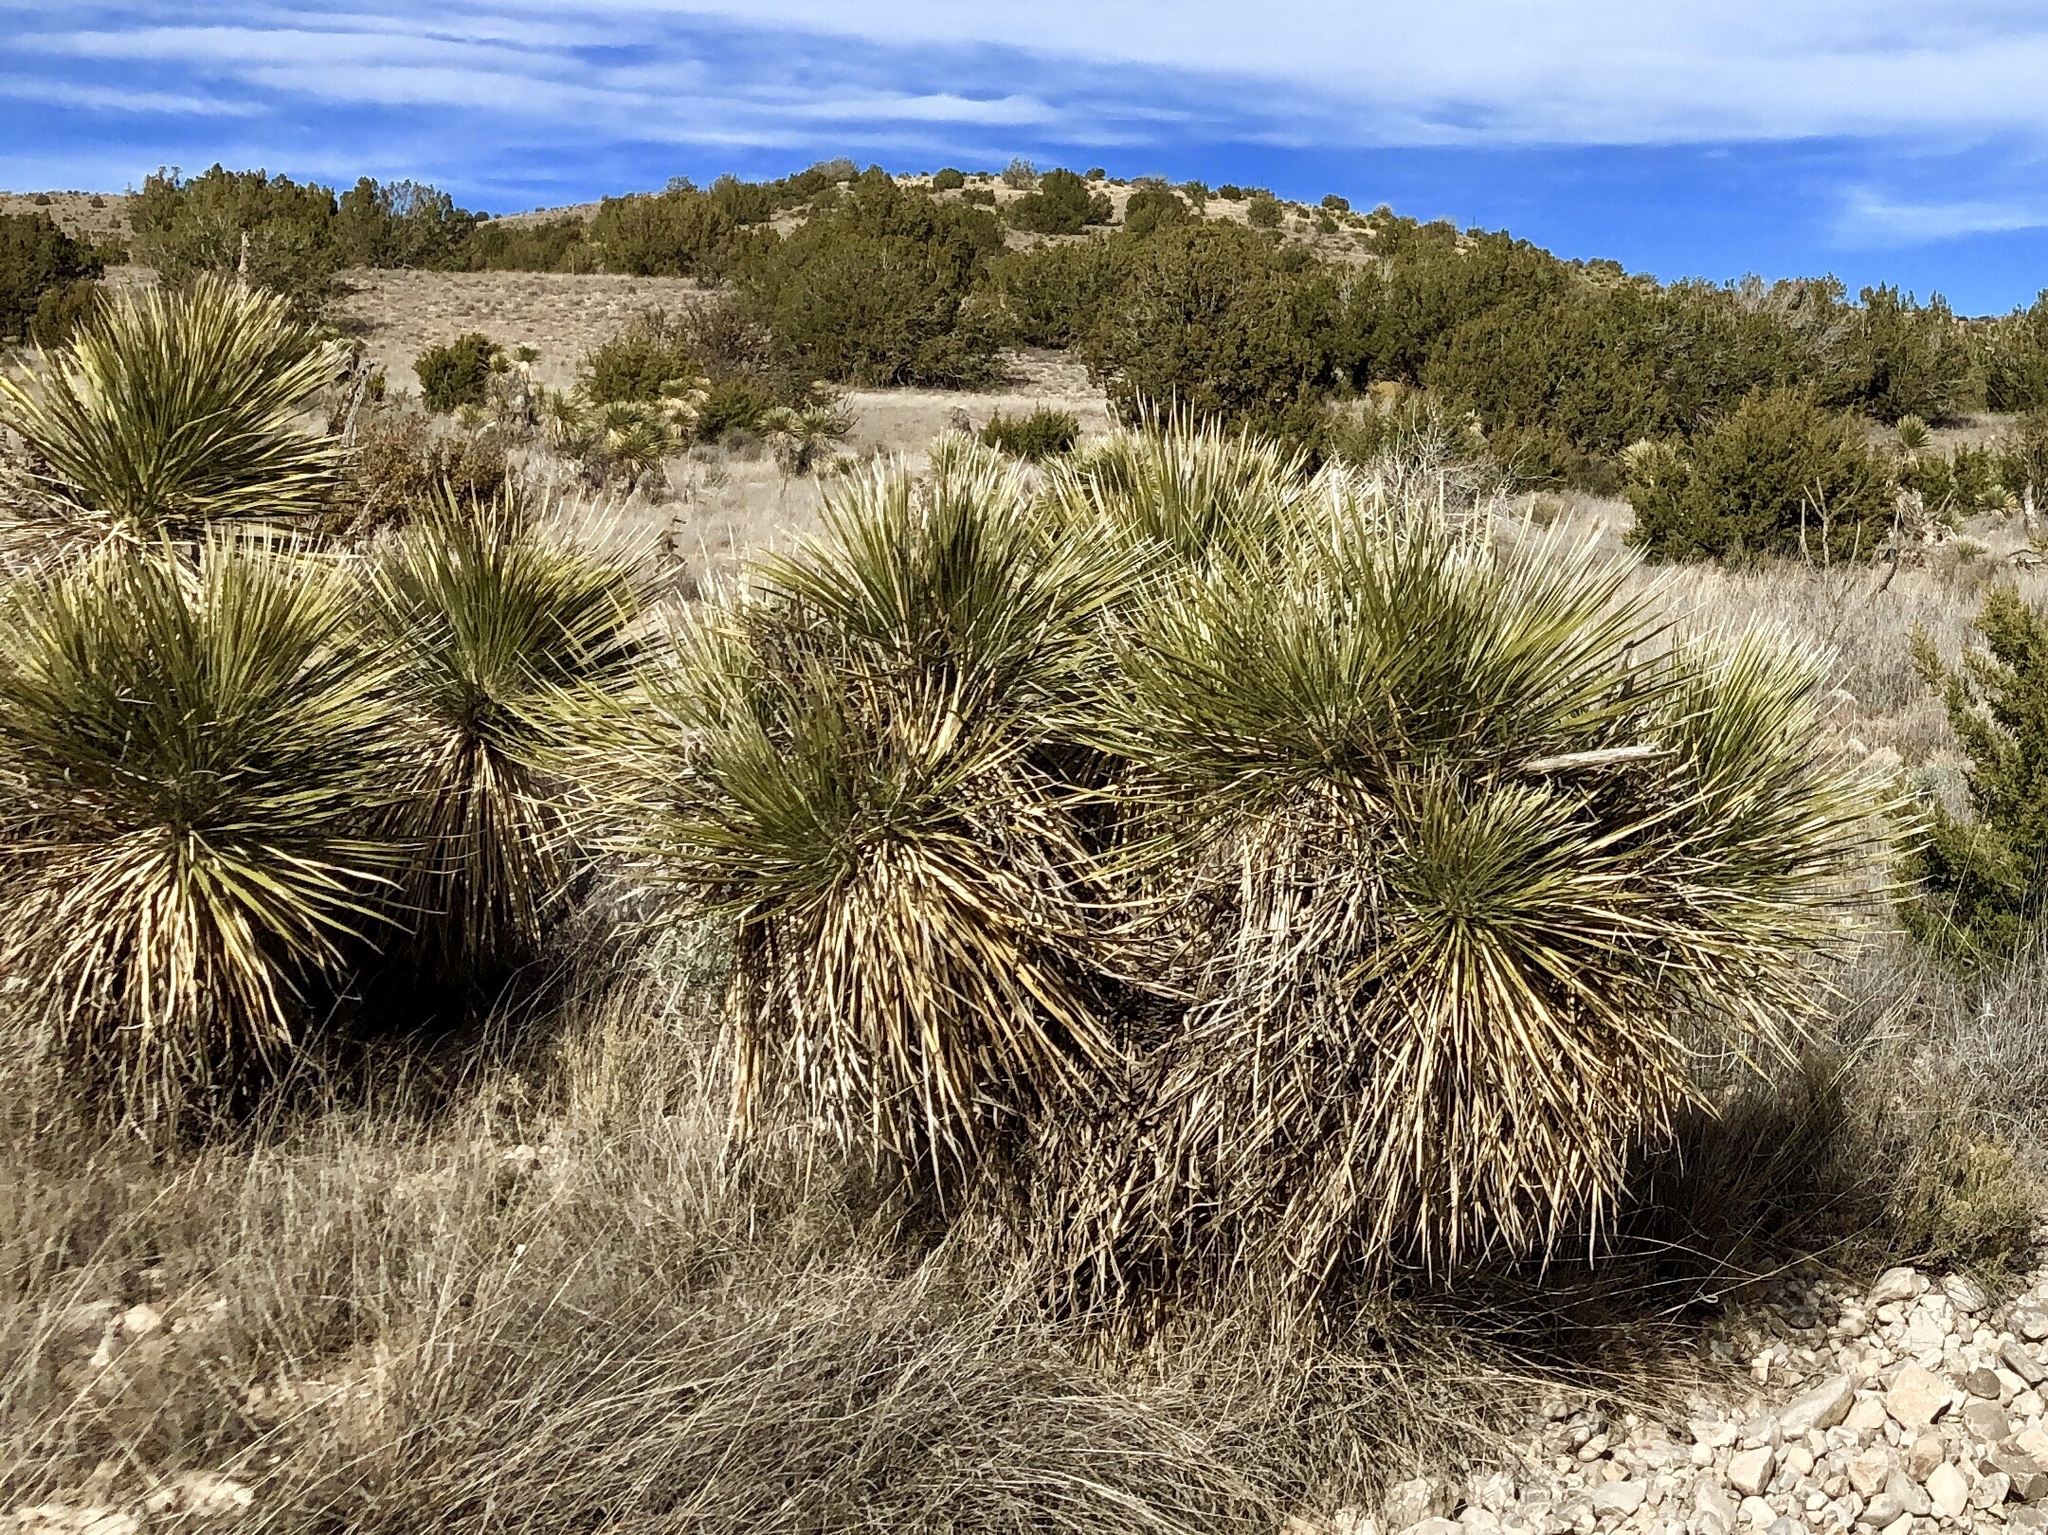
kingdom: Plantae
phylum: Tracheophyta
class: Liliopsida
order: Asparagales
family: Asparagaceae
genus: Yucca
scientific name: Yucca elata
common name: Palmella
